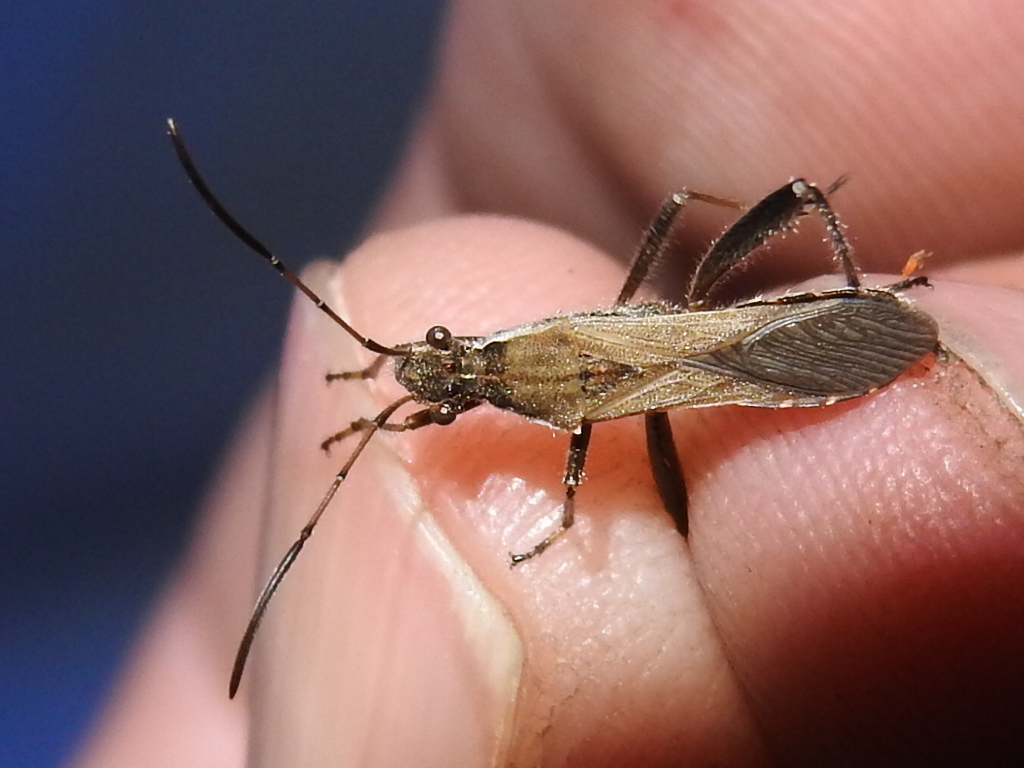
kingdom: Animalia
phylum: Arthropoda
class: Insecta
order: Hemiptera
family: Alydidae
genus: Alydus
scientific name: Alydus pilosulus
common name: Broad-headed bug
